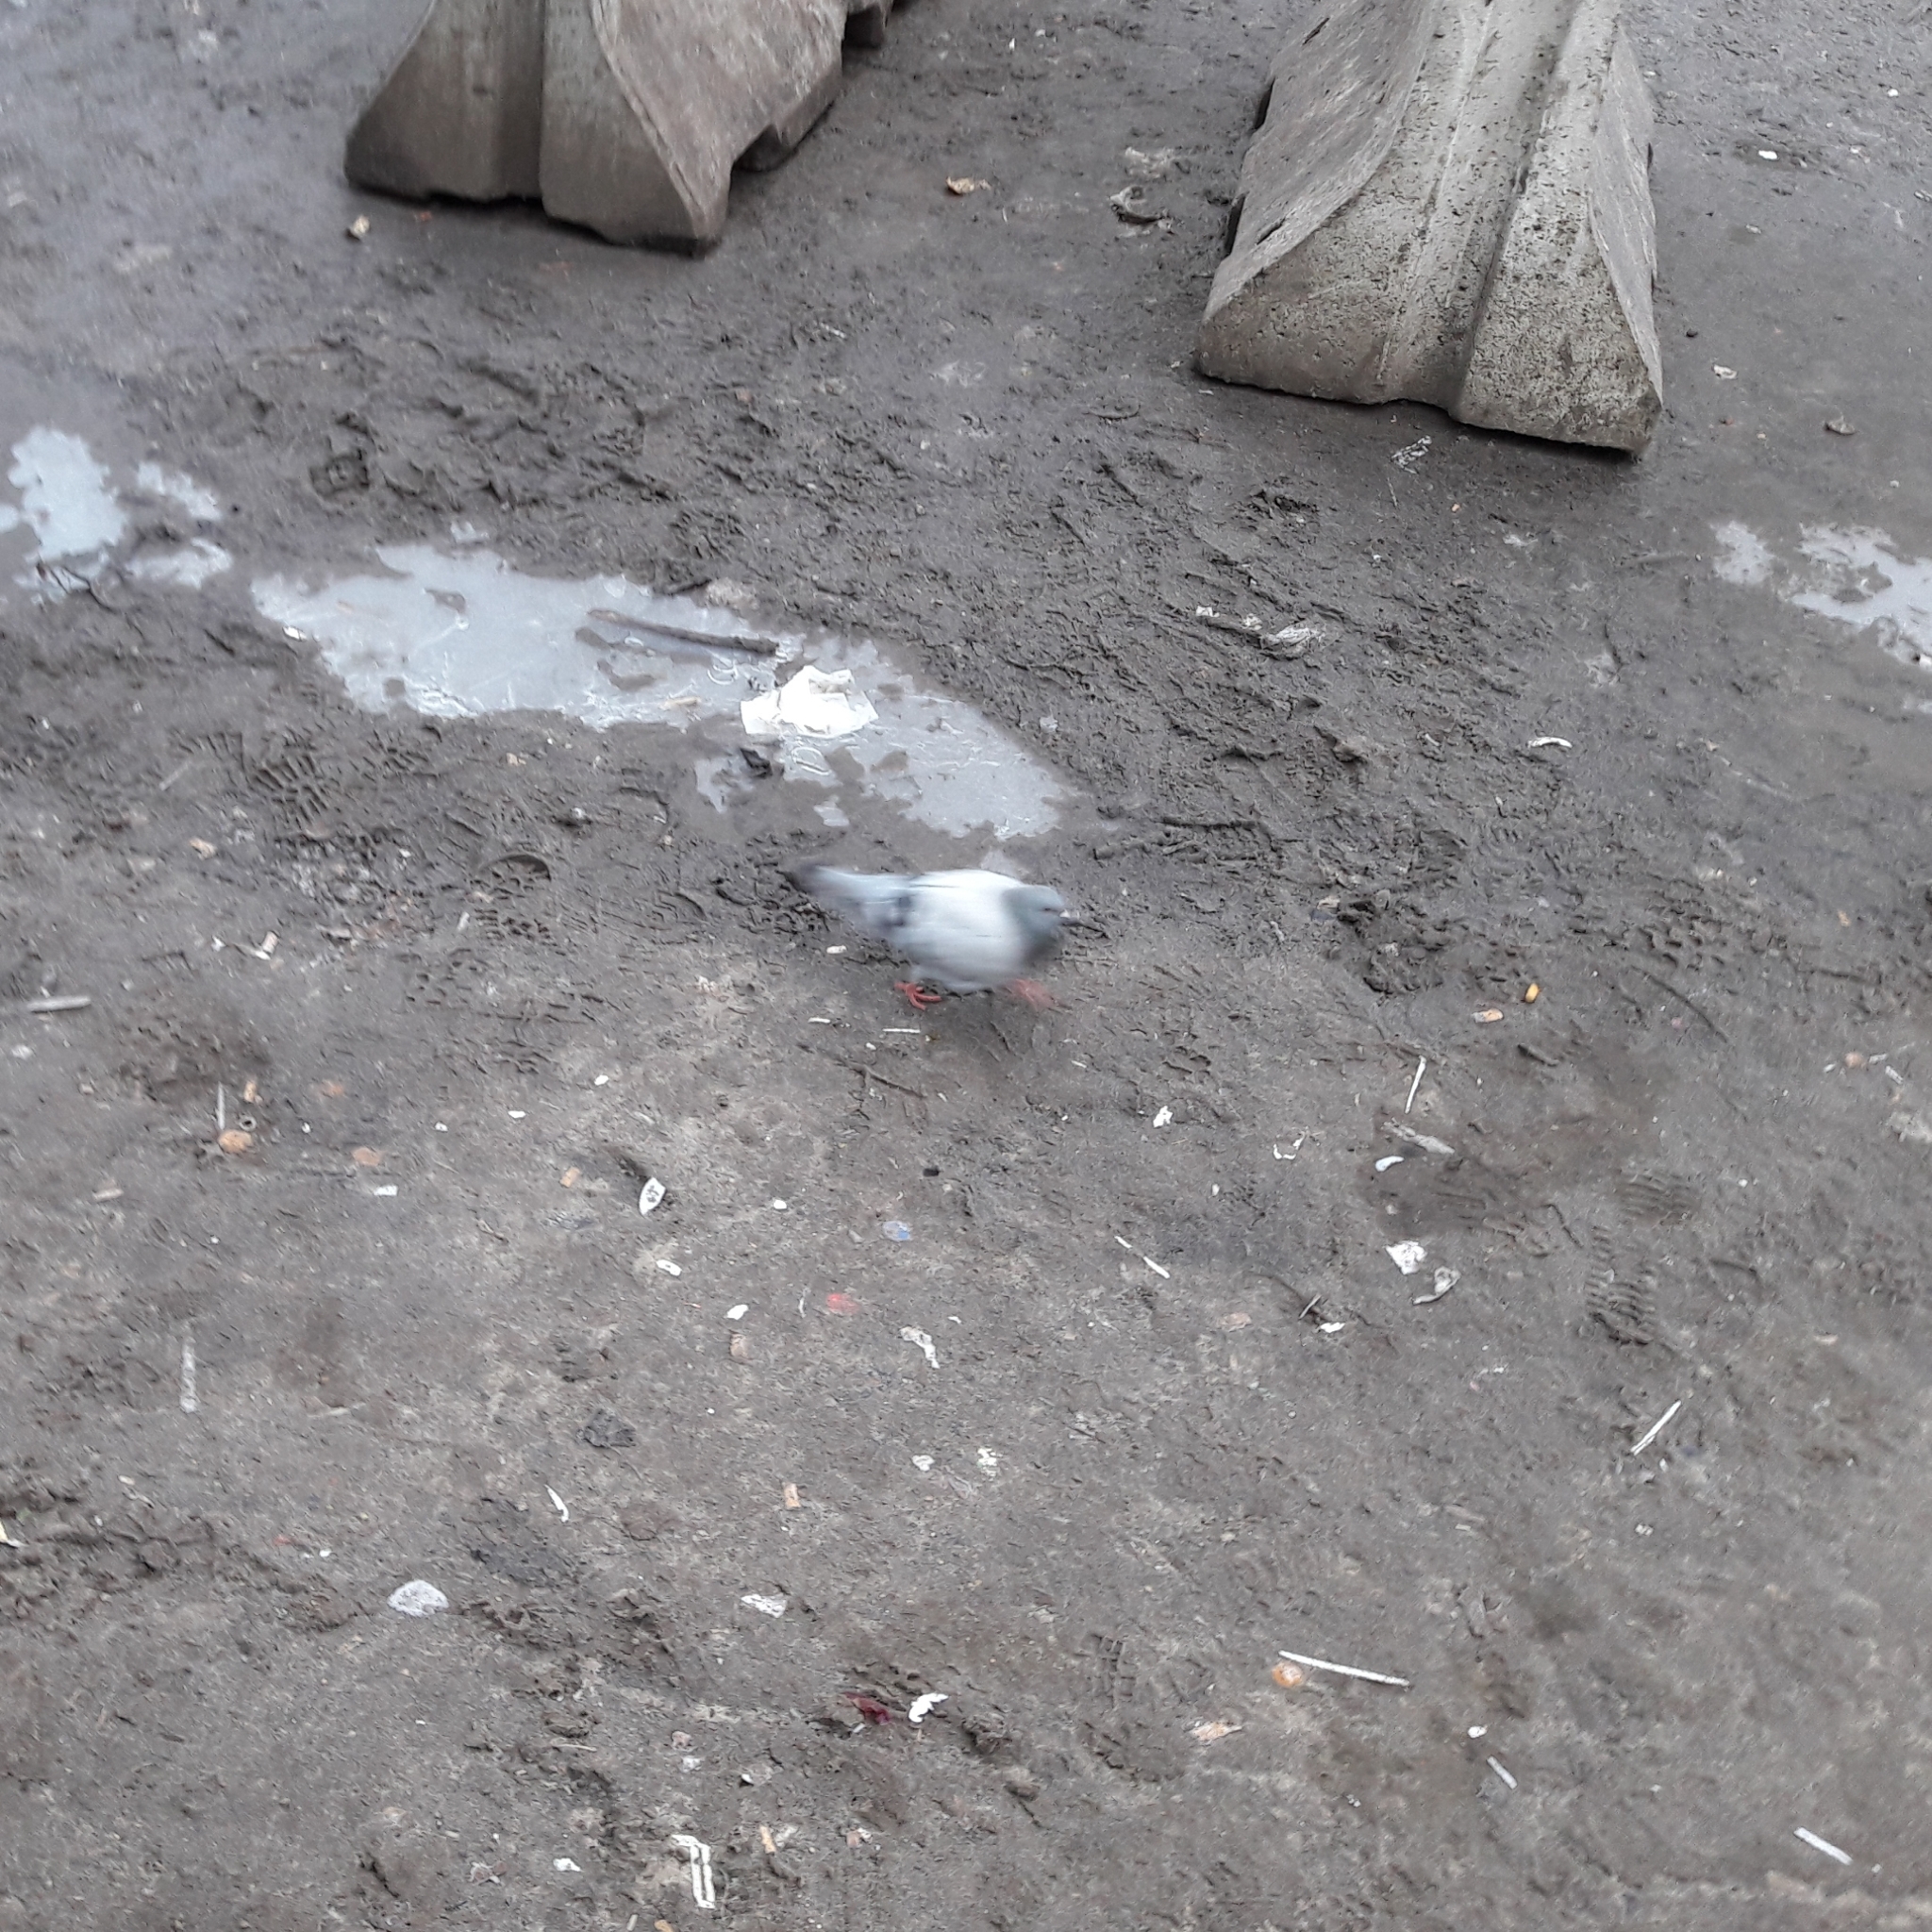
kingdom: Animalia
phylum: Chordata
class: Aves
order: Columbiformes
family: Columbidae
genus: Columba
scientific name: Columba livia
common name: Rock pigeon
